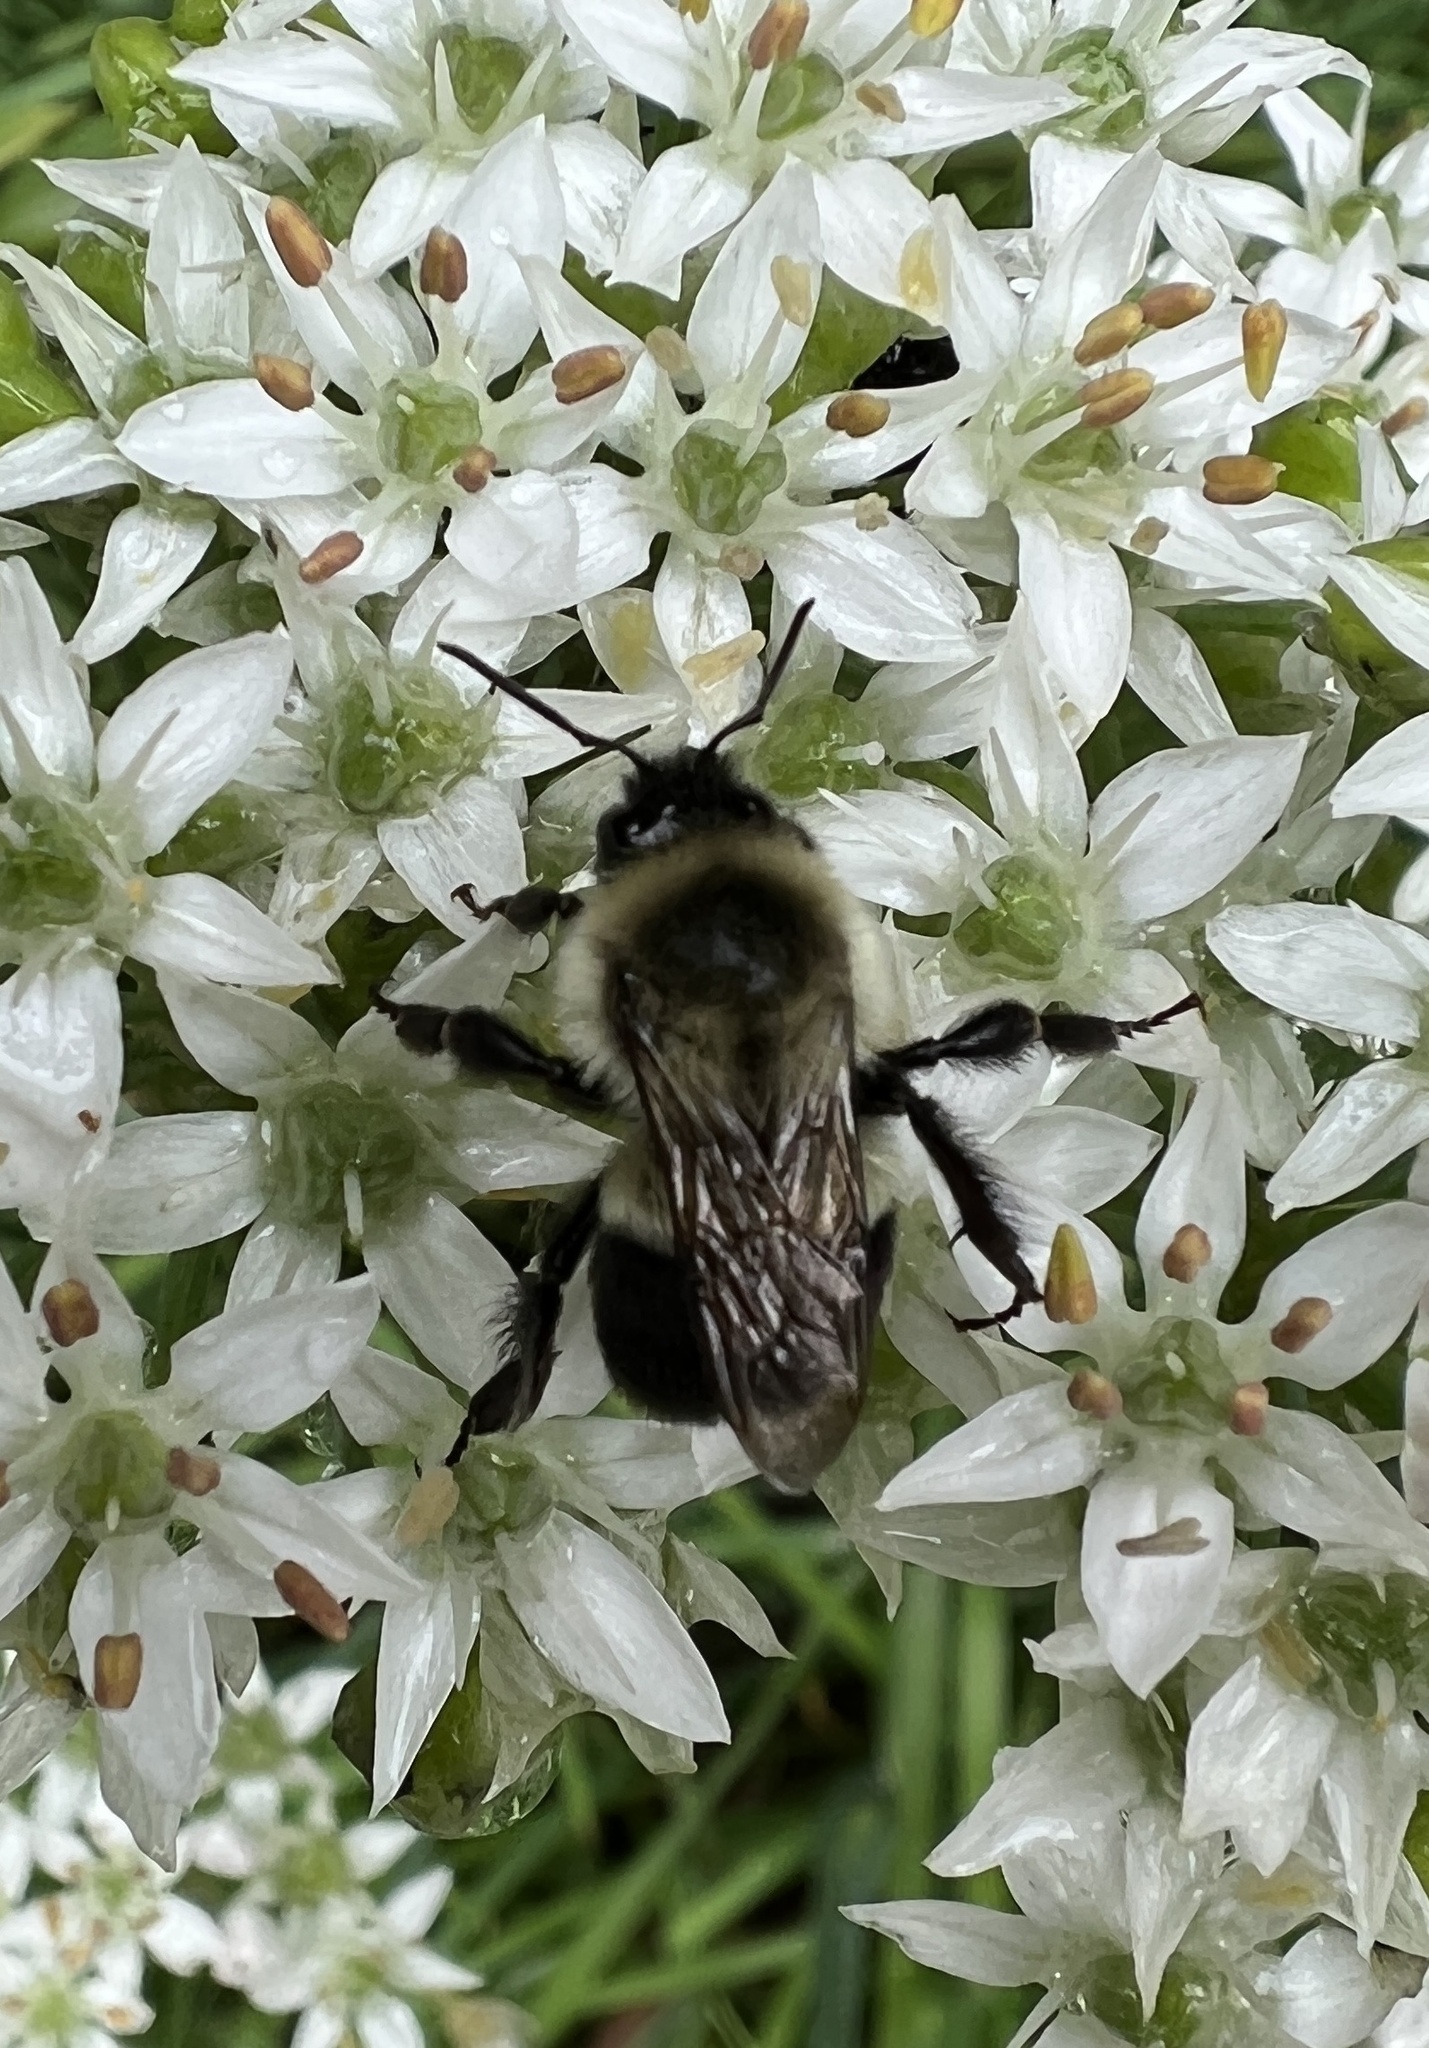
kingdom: Animalia
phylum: Arthropoda
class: Insecta
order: Hymenoptera
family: Apidae
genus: Bombus
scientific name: Bombus impatiens
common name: Common eastern bumble bee
